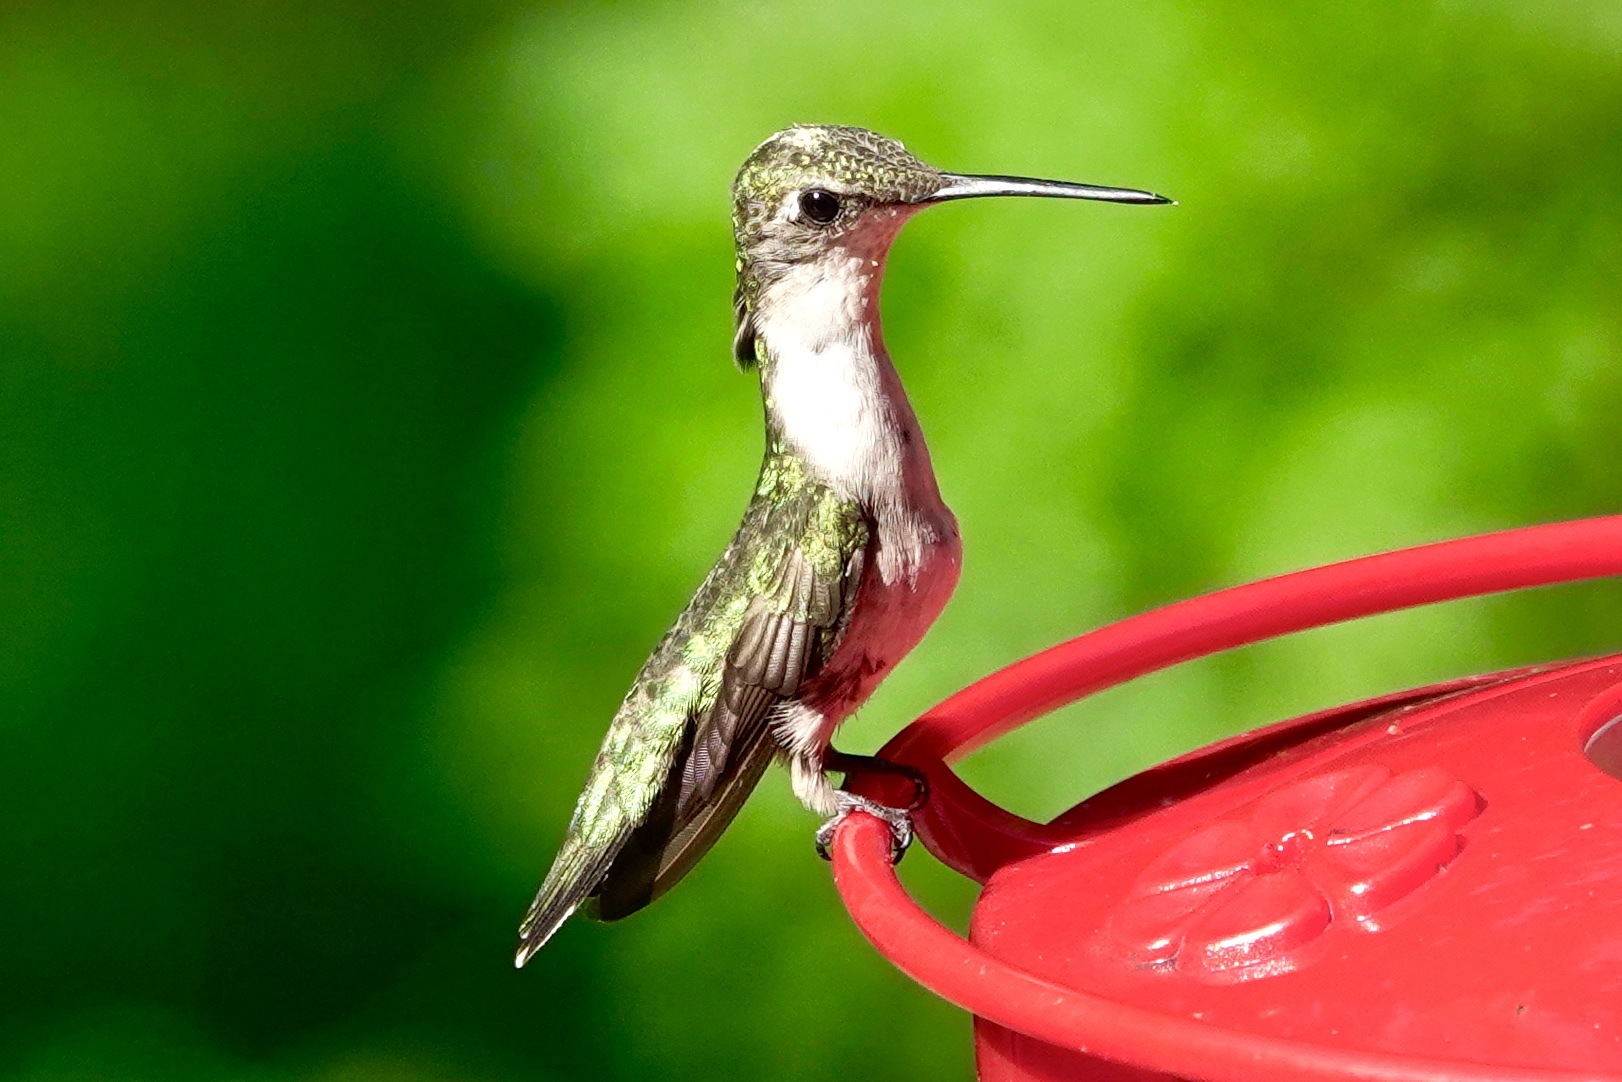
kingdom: Animalia
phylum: Chordata
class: Aves
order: Apodiformes
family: Trochilidae
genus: Archilochus
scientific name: Archilochus colubris
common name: Ruby-throated hummingbird
